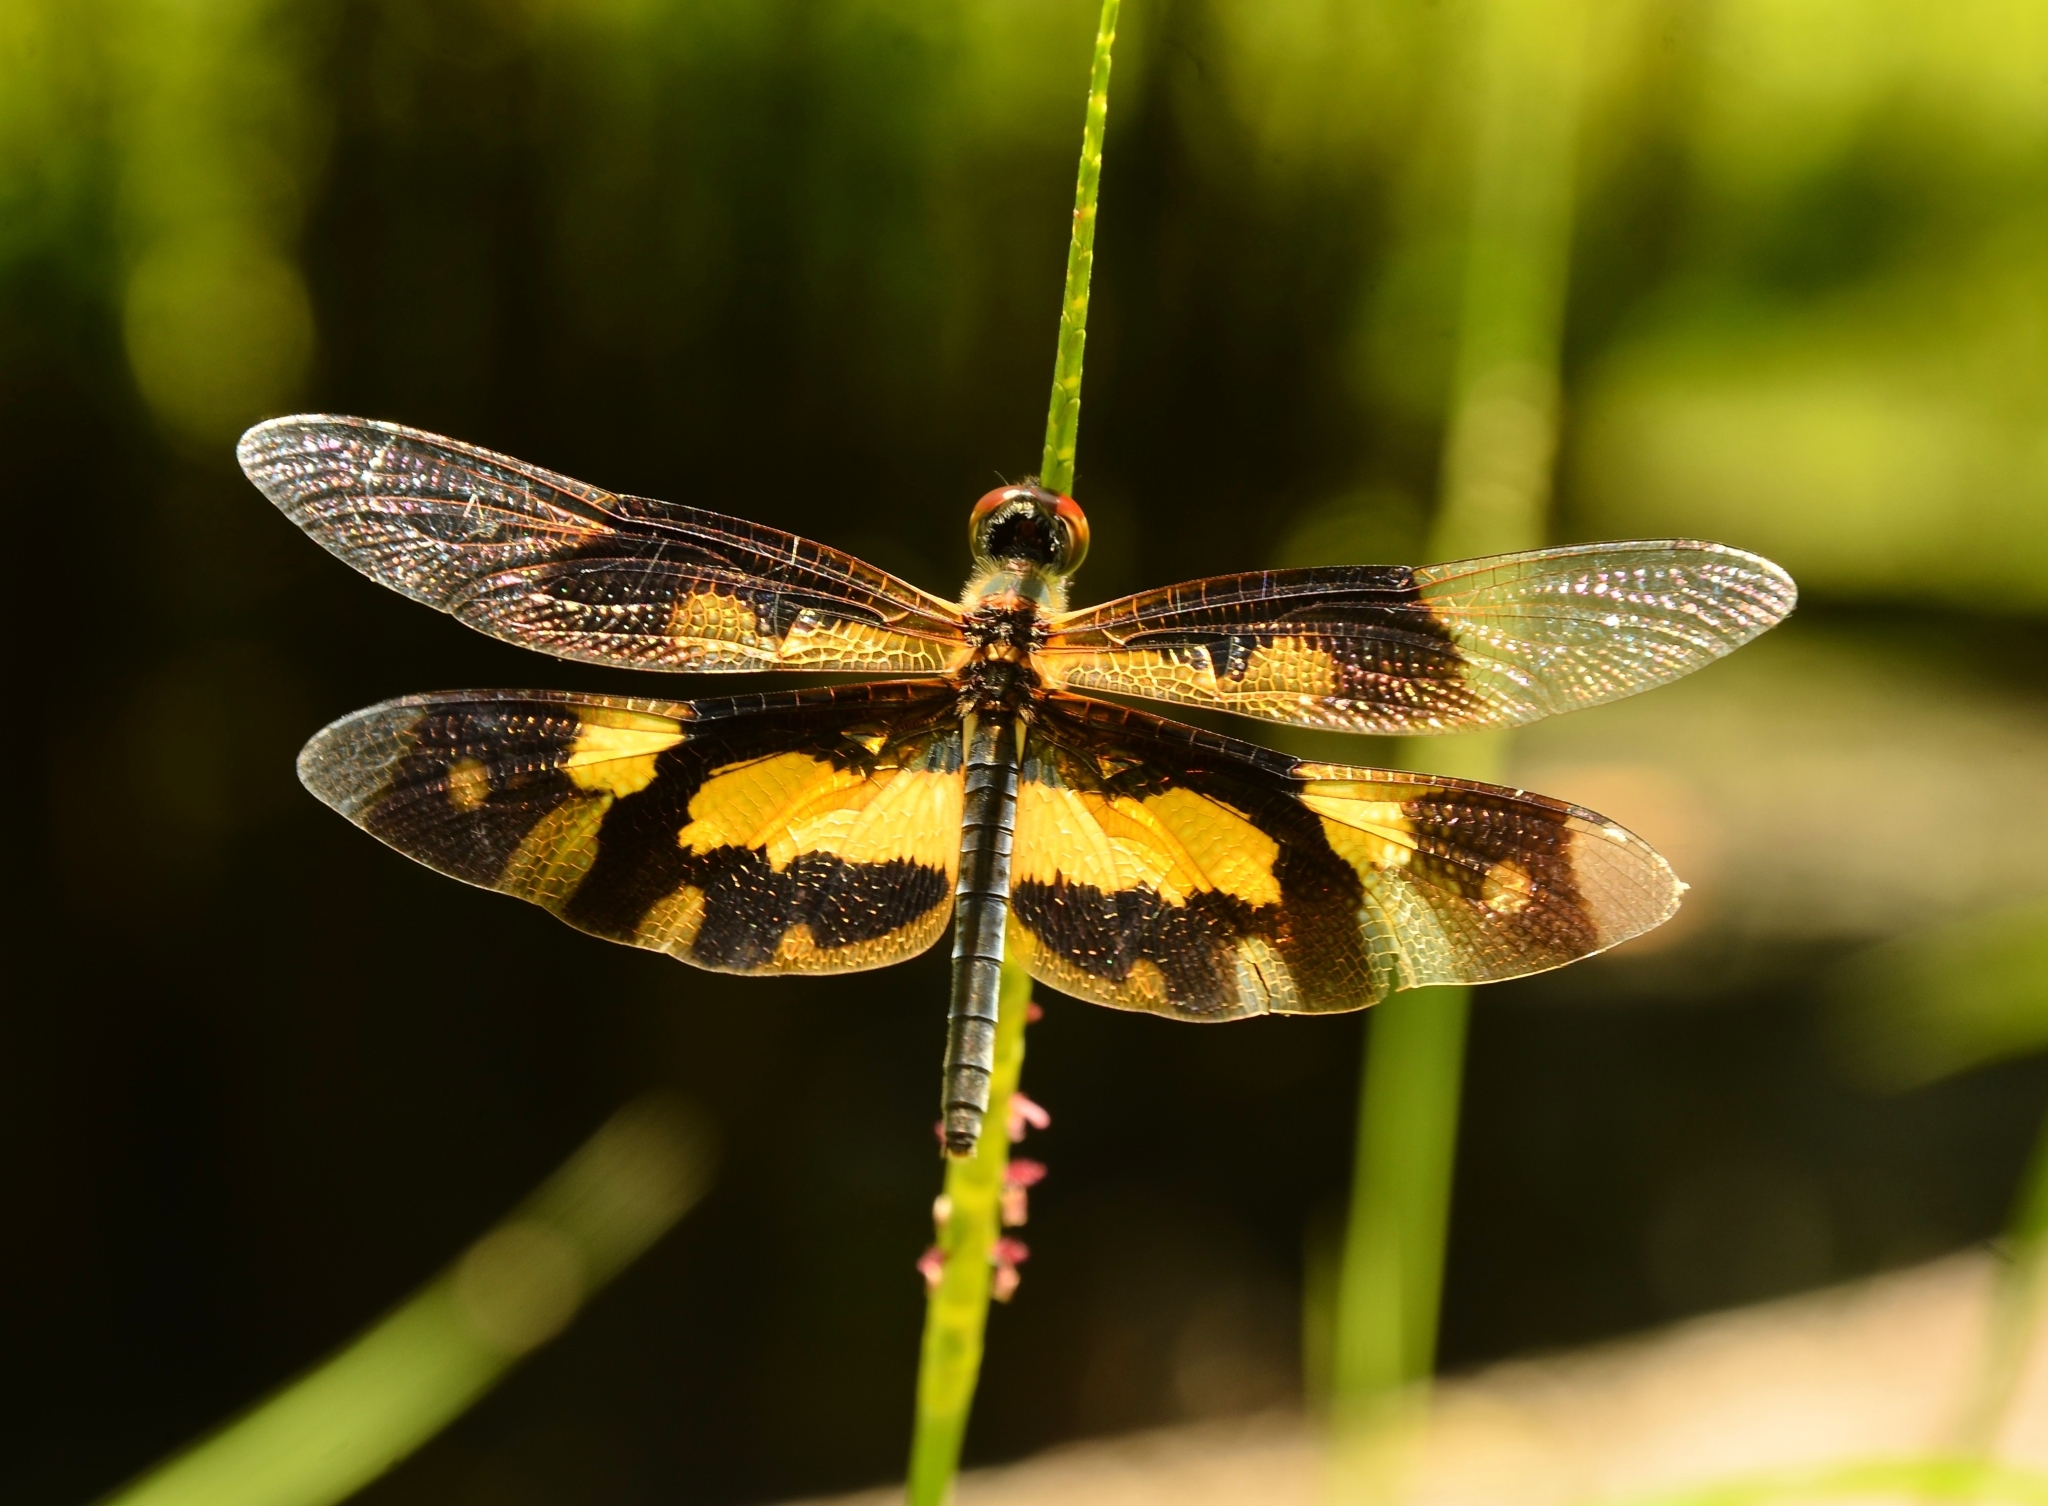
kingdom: Animalia
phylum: Arthropoda
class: Insecta
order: Odonata
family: Libellulidae
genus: Rhyothemis
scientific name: Rhyothemis variegata
